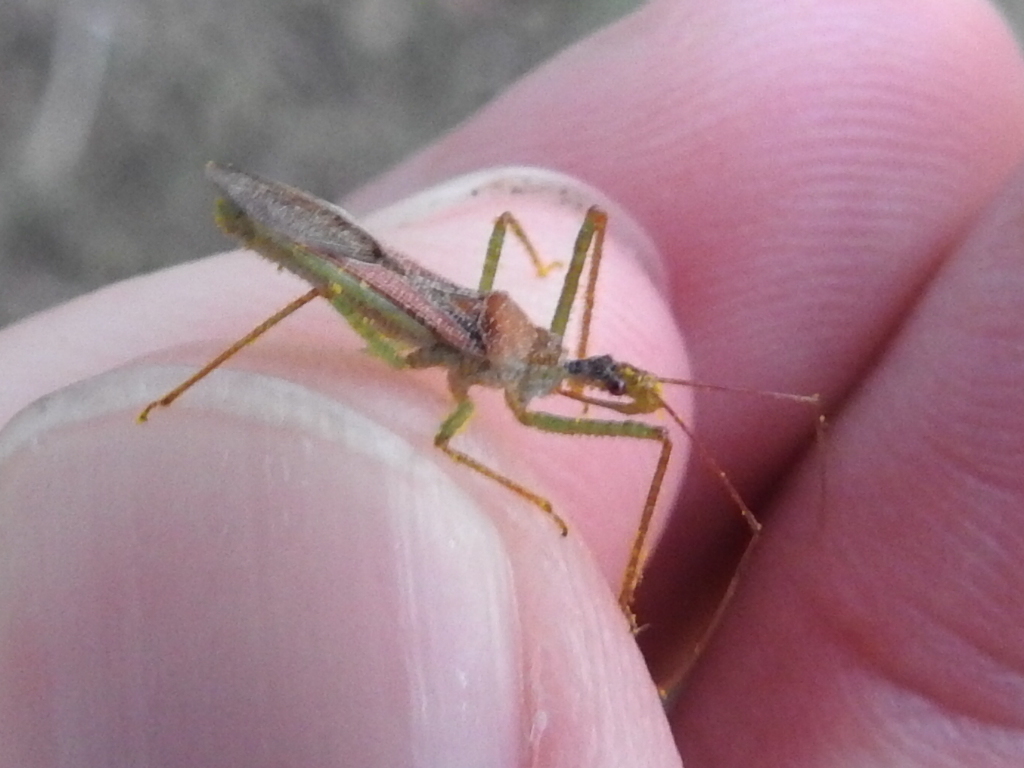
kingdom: Animalia
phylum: Arthropoda
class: Insecta
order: Hemiptera
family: Reduviidae
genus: Zelus
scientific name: Zelus renardii
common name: Assassin bug
